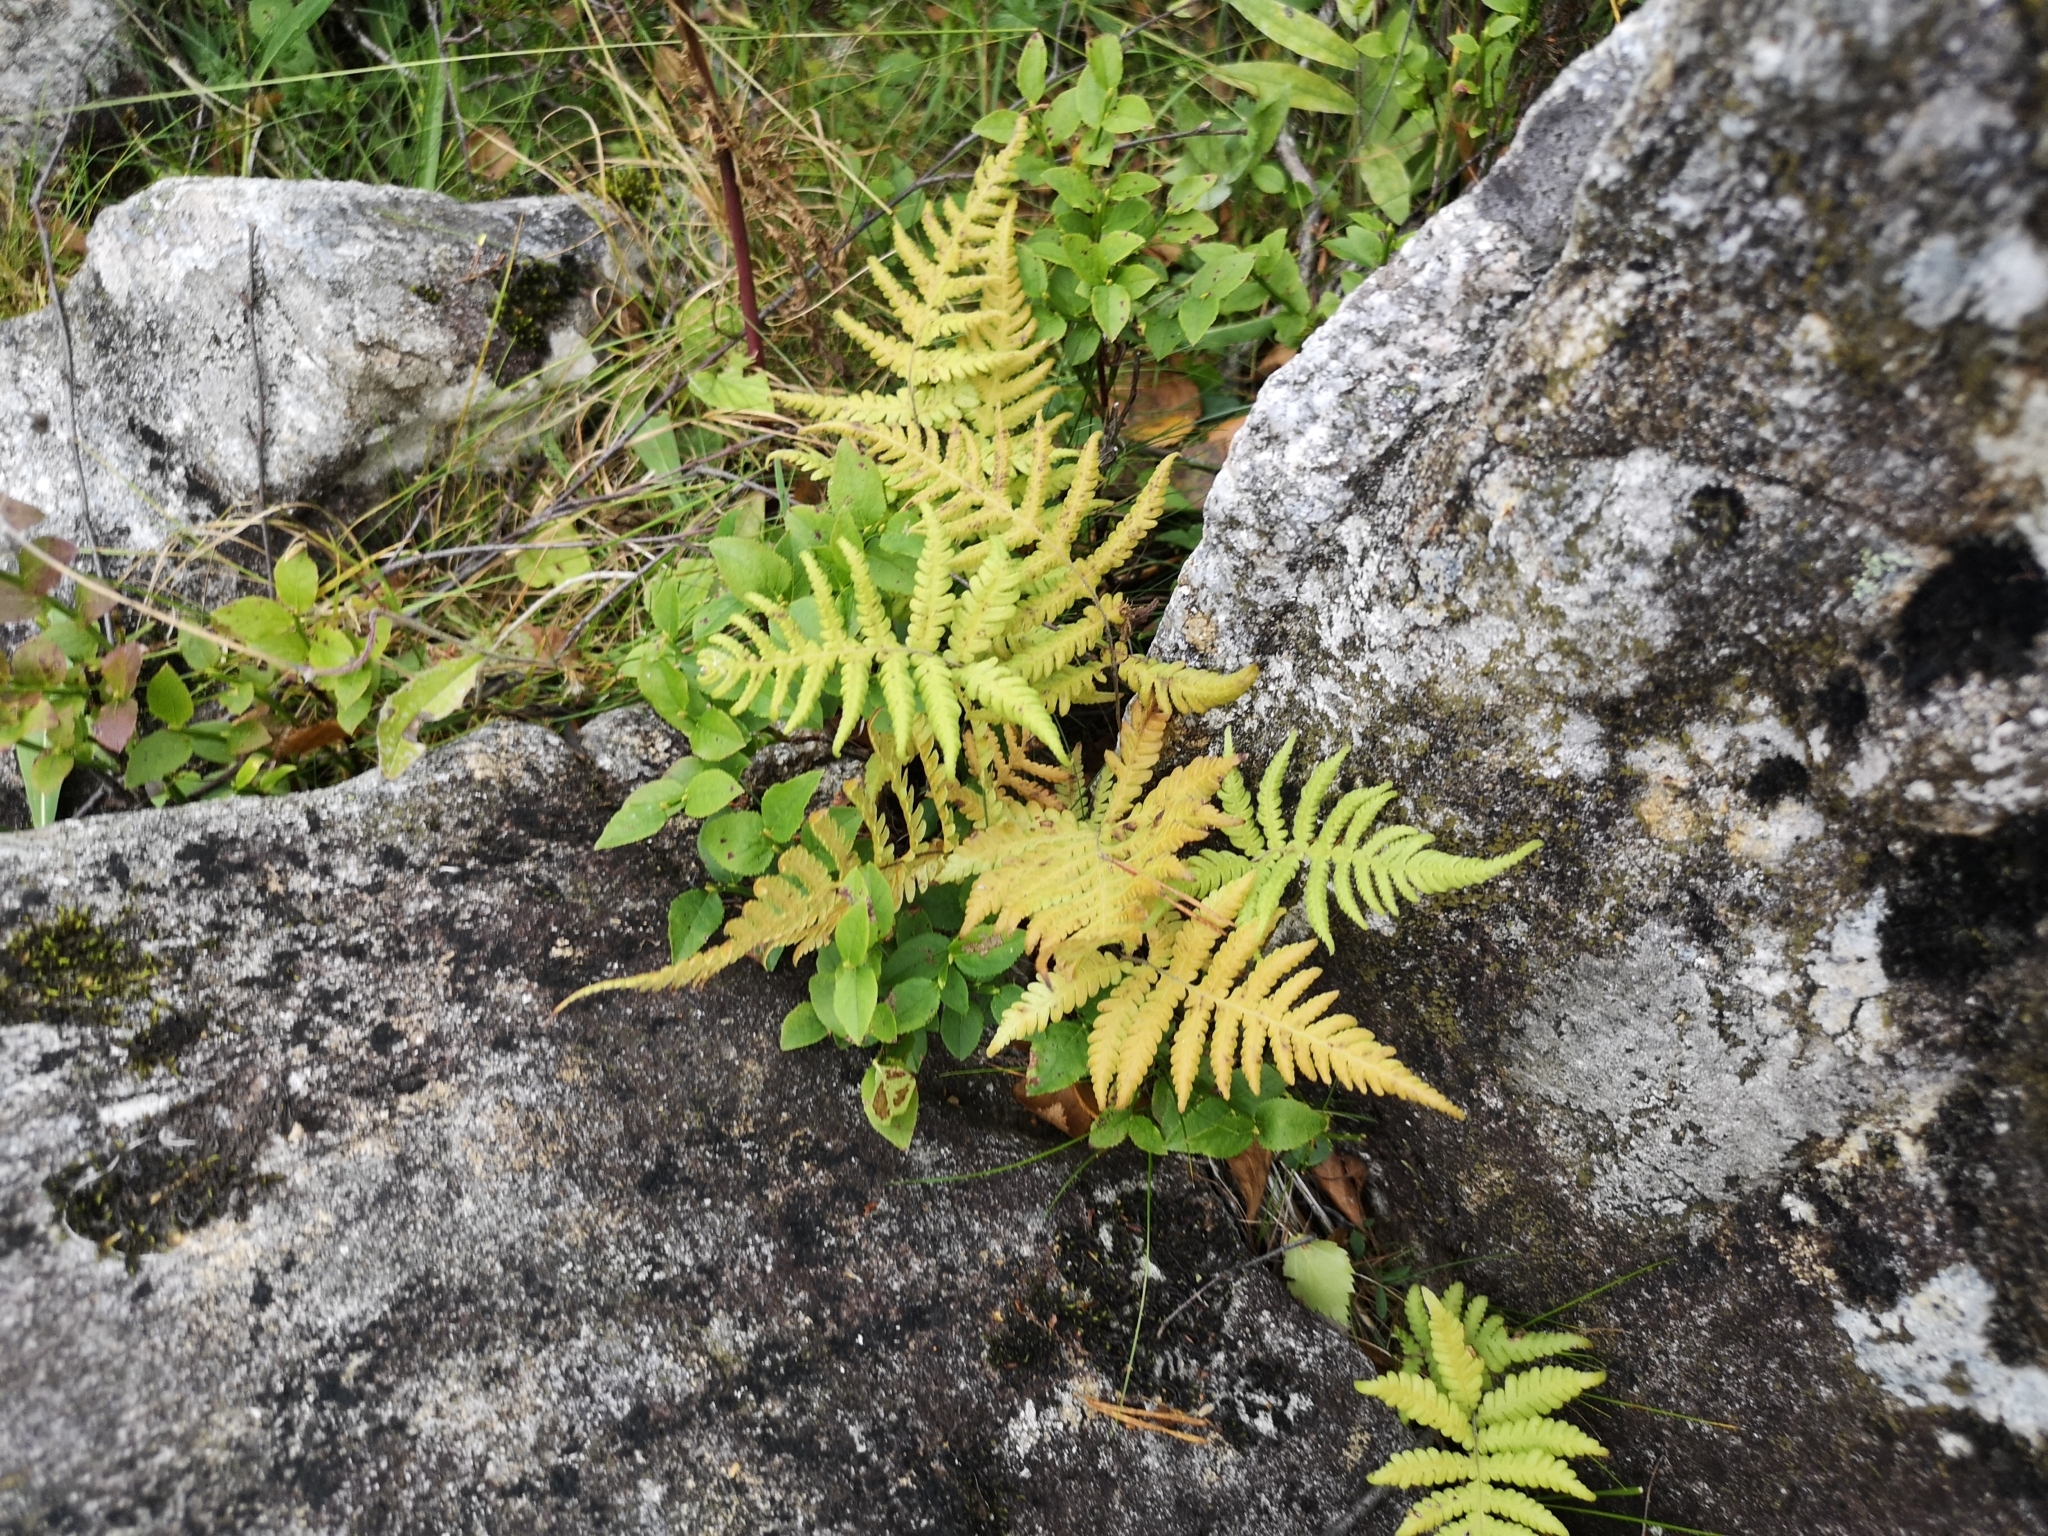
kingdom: Plantae
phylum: Tracheophyta
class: Polypodiopsida
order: Polypodiales
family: Thelypteridaceae
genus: Phegopteris
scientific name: Phegopteris connectilis
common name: Beech fern
